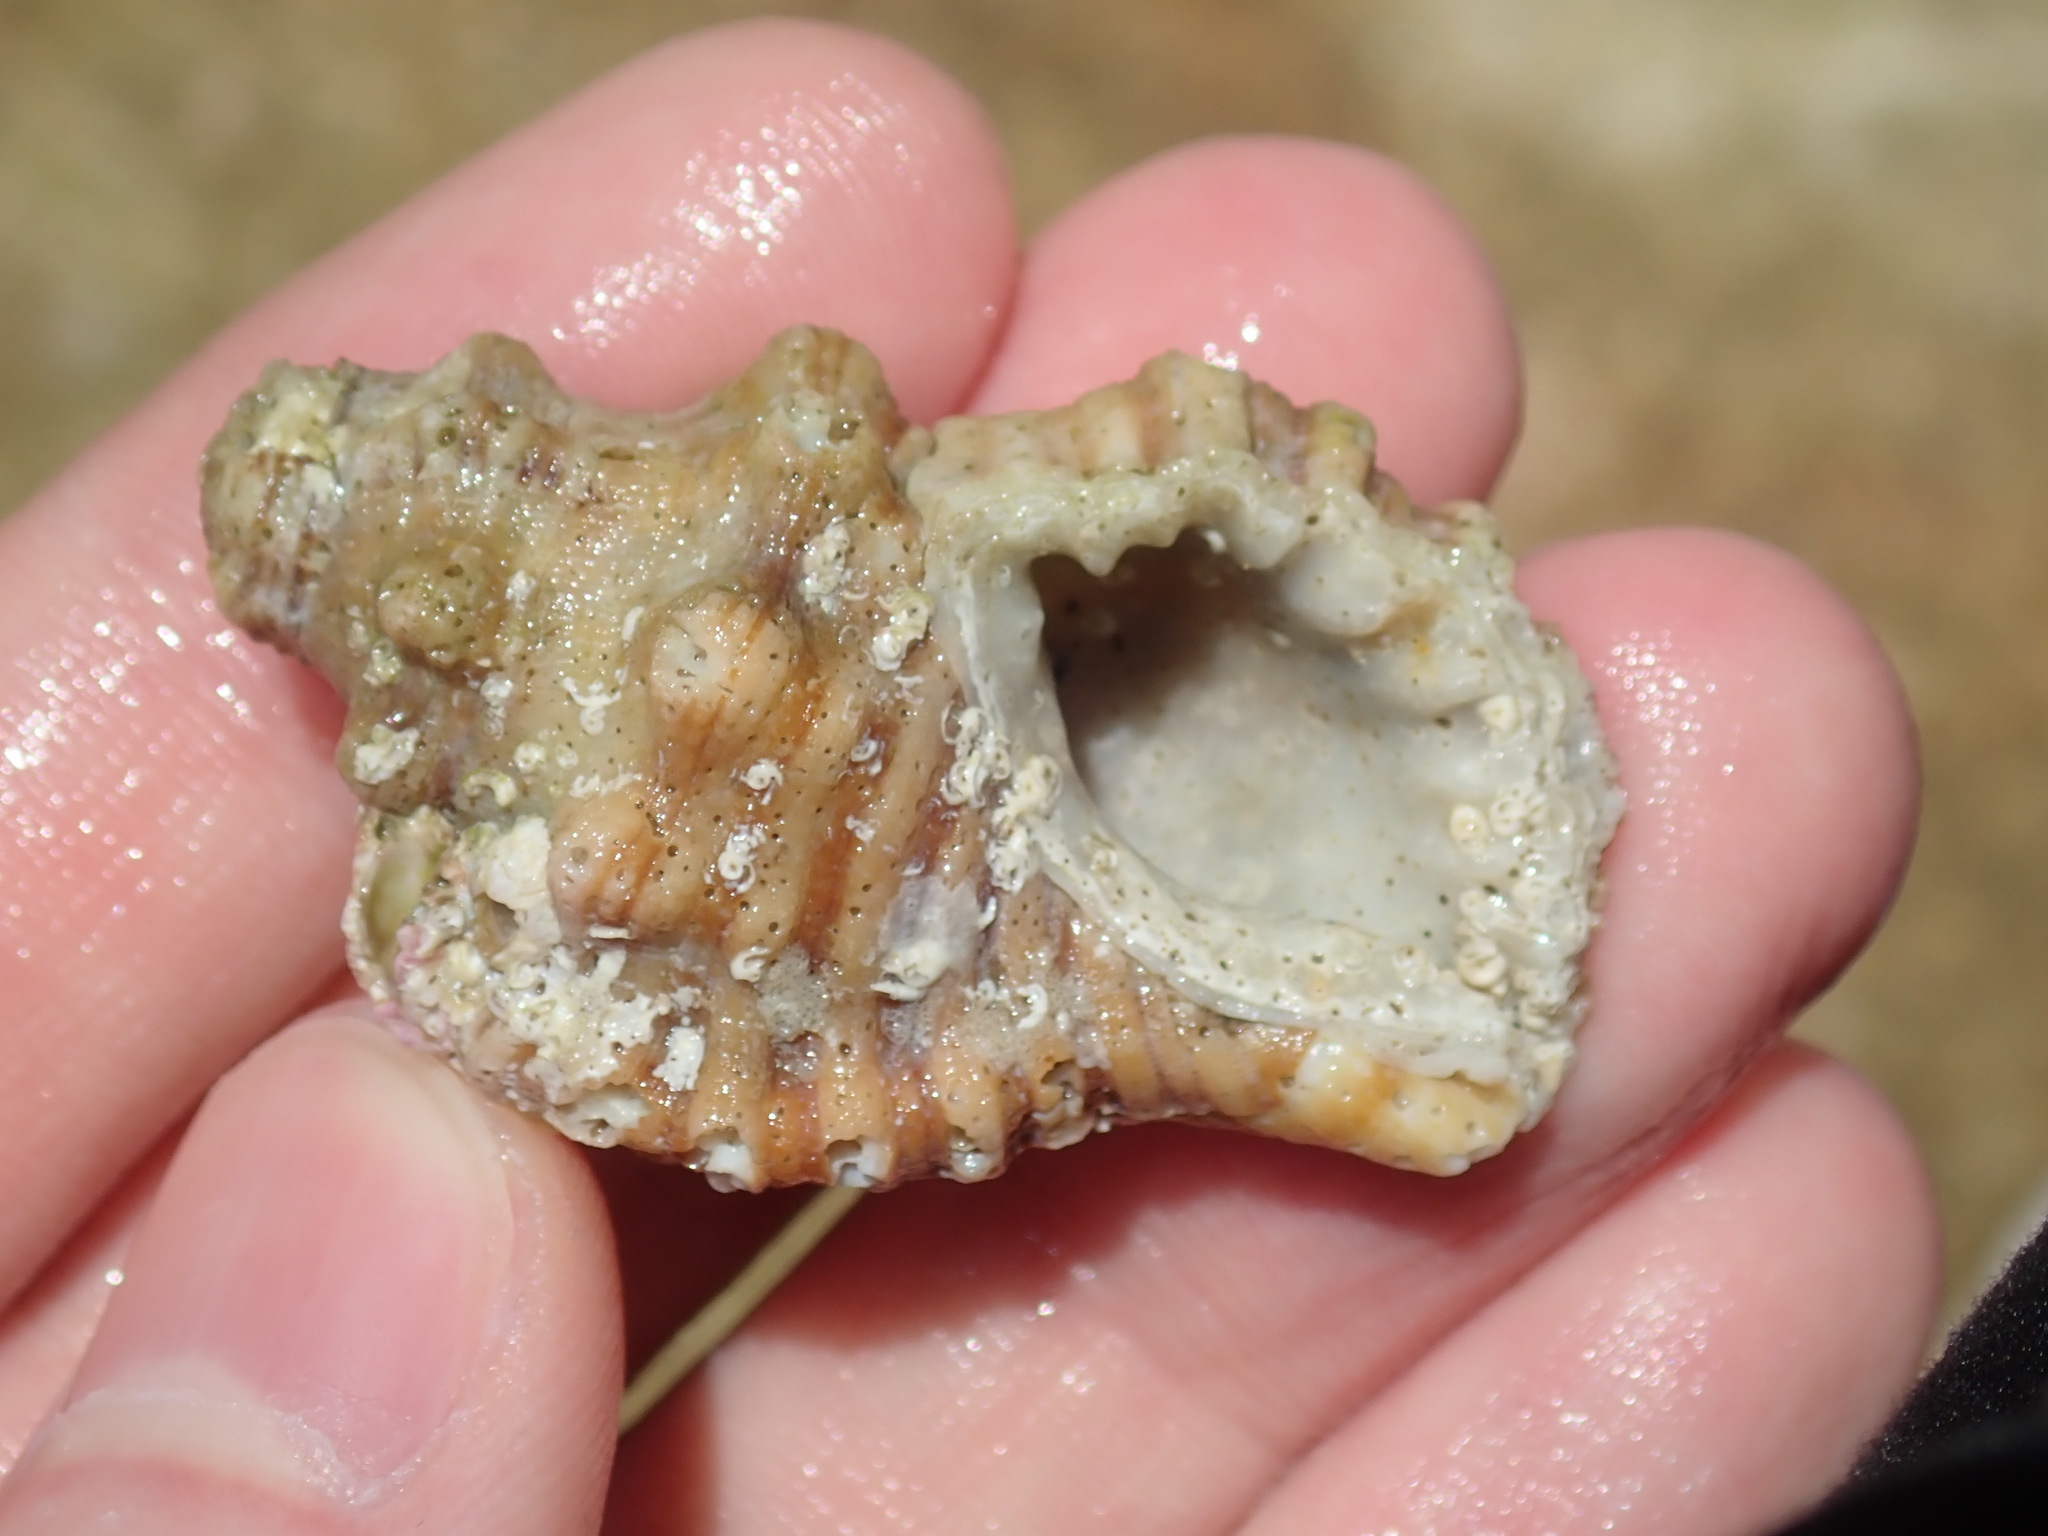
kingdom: Animalia
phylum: Mollusca
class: Gastropoda
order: Littorinimorpha
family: Cymatiidae
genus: Cabestana
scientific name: Cabestana spengleri
